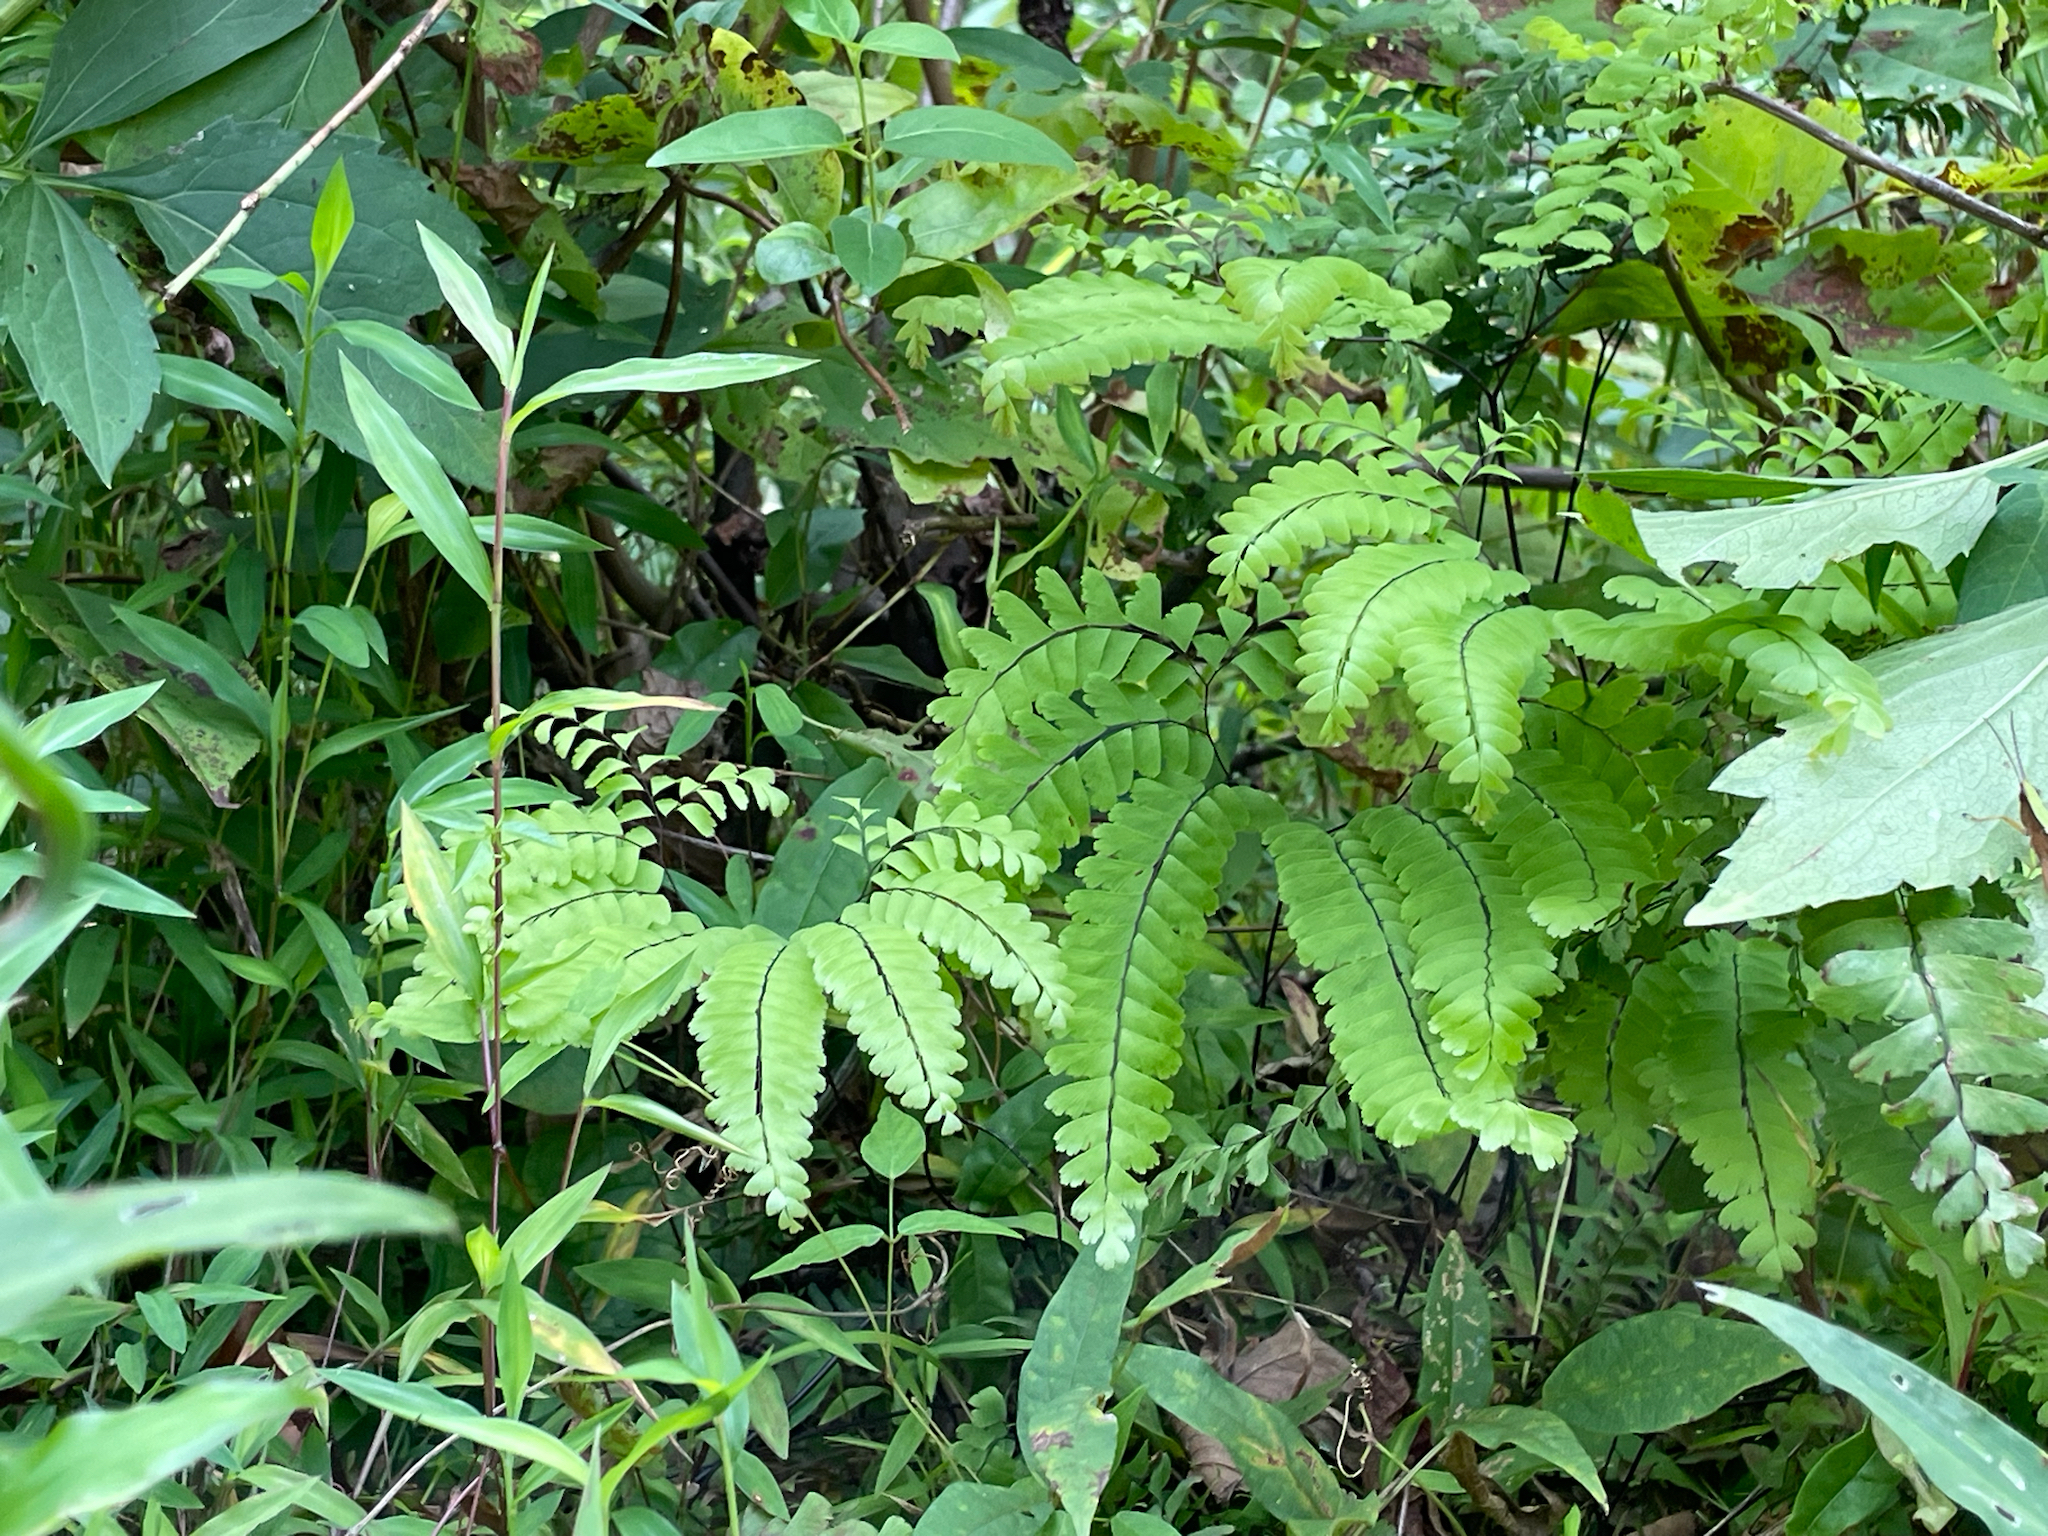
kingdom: Plantae
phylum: Tracheophyta
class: Polypodiopsida
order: Polypodiales
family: Pteridaceae
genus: Adiantum
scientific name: Adiantum pedatum
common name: Five-finger fern
